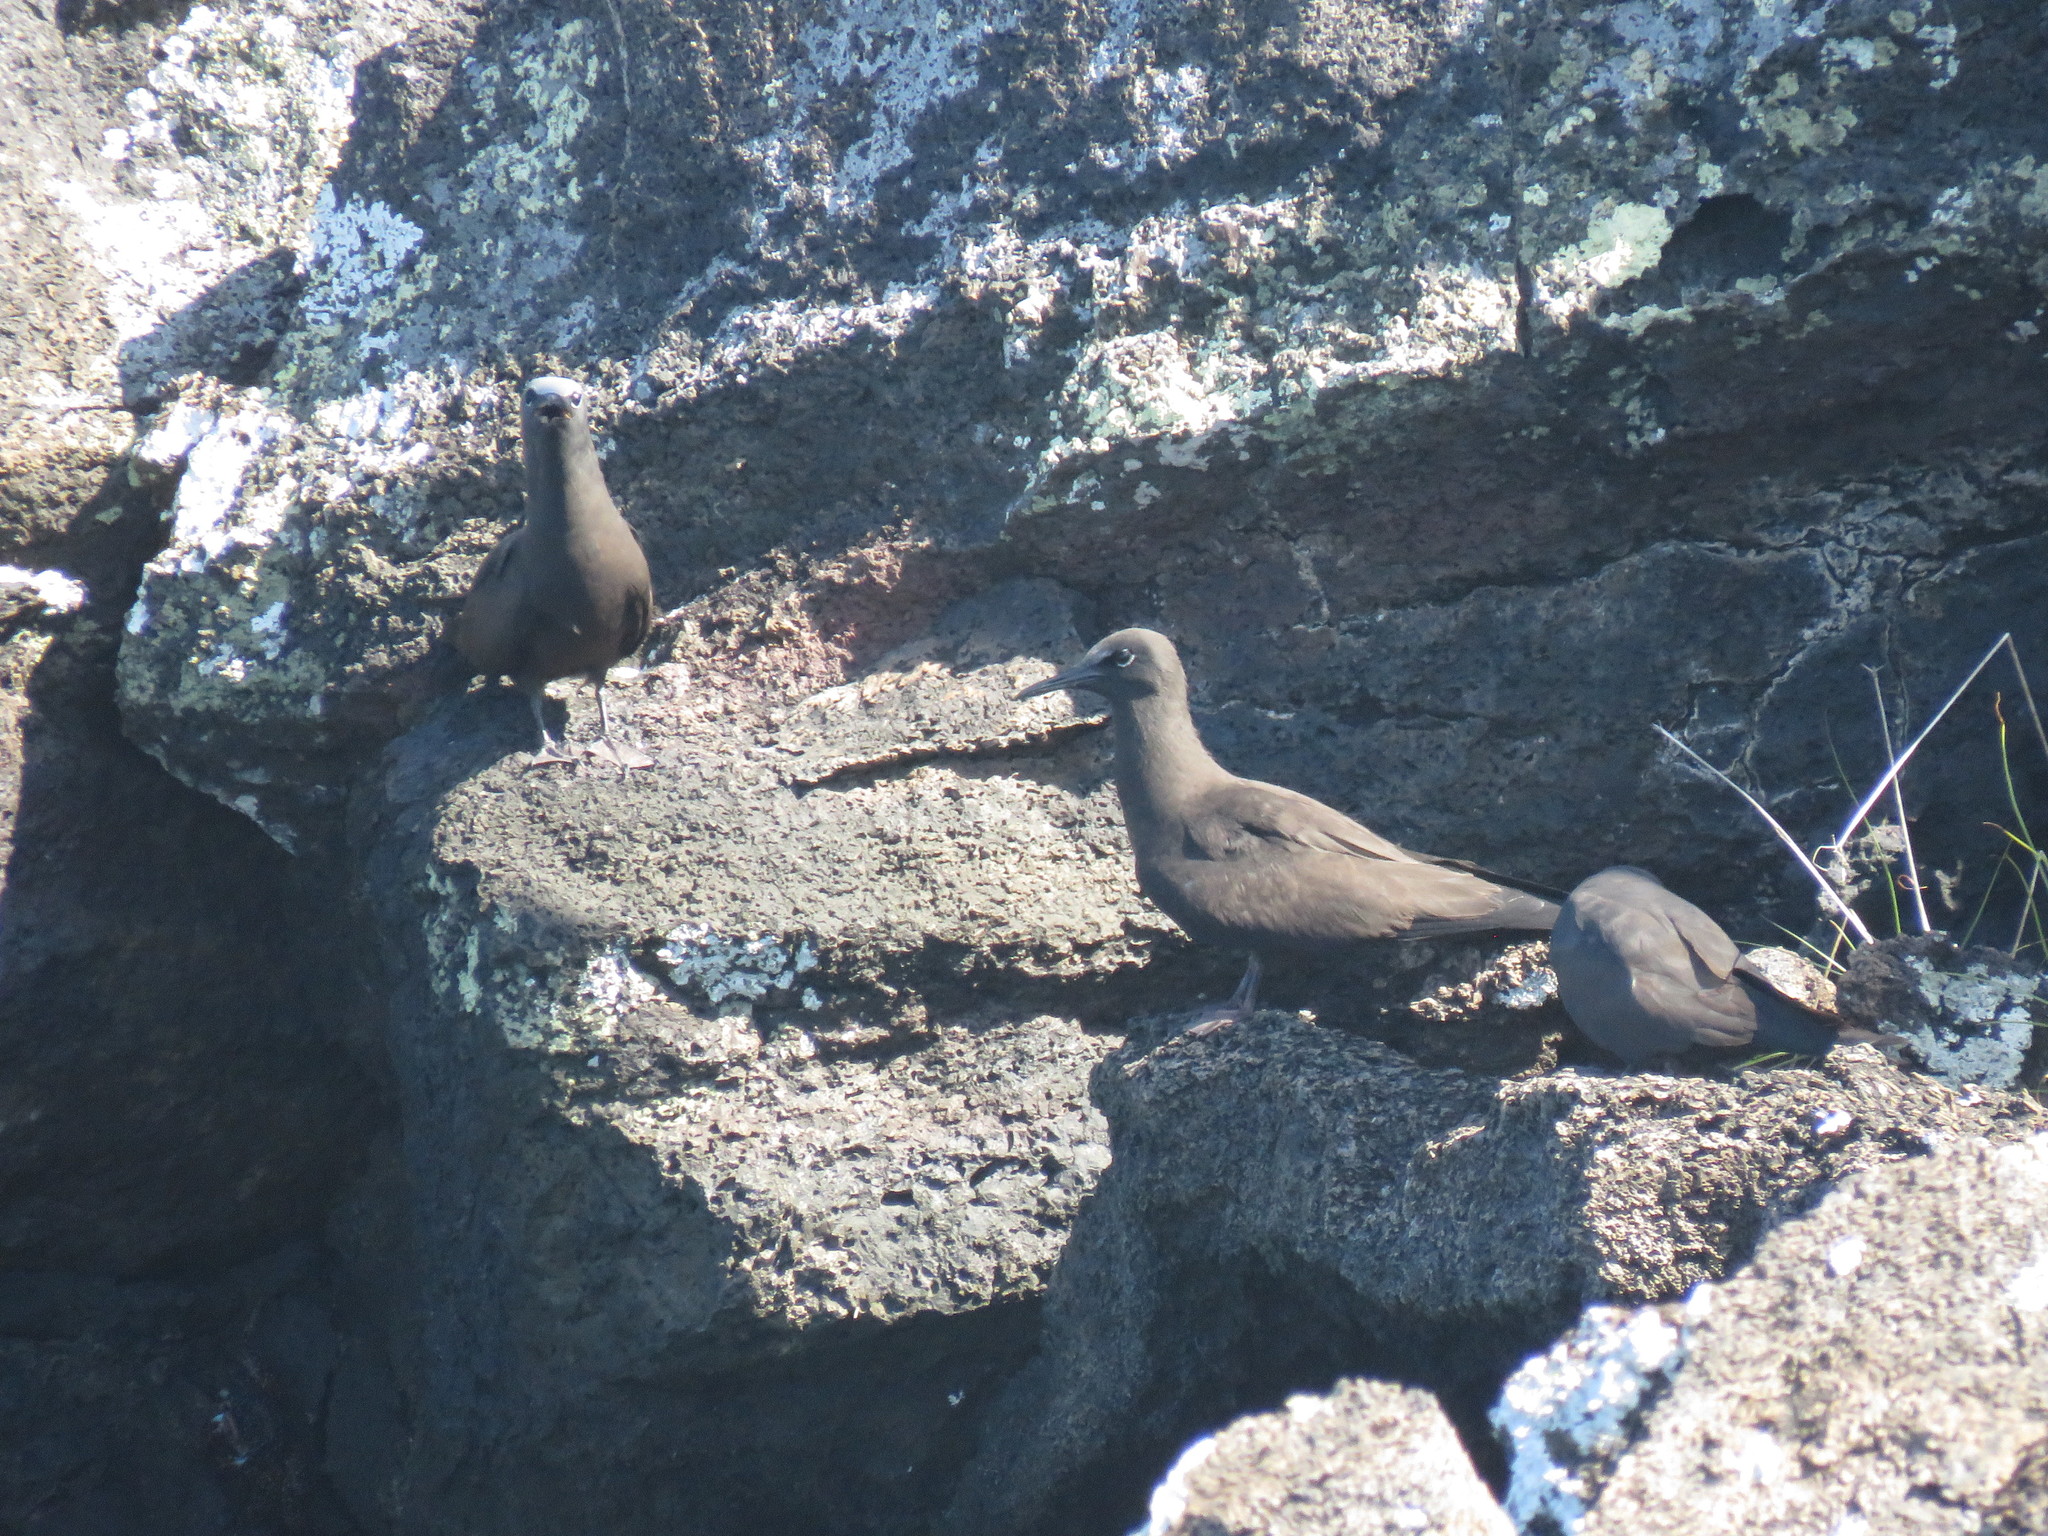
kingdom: Animalia
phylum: Chordata
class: Aves
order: Charadriiformes
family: Laridae
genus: Anous
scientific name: Anous stolidus
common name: Brown noddy
